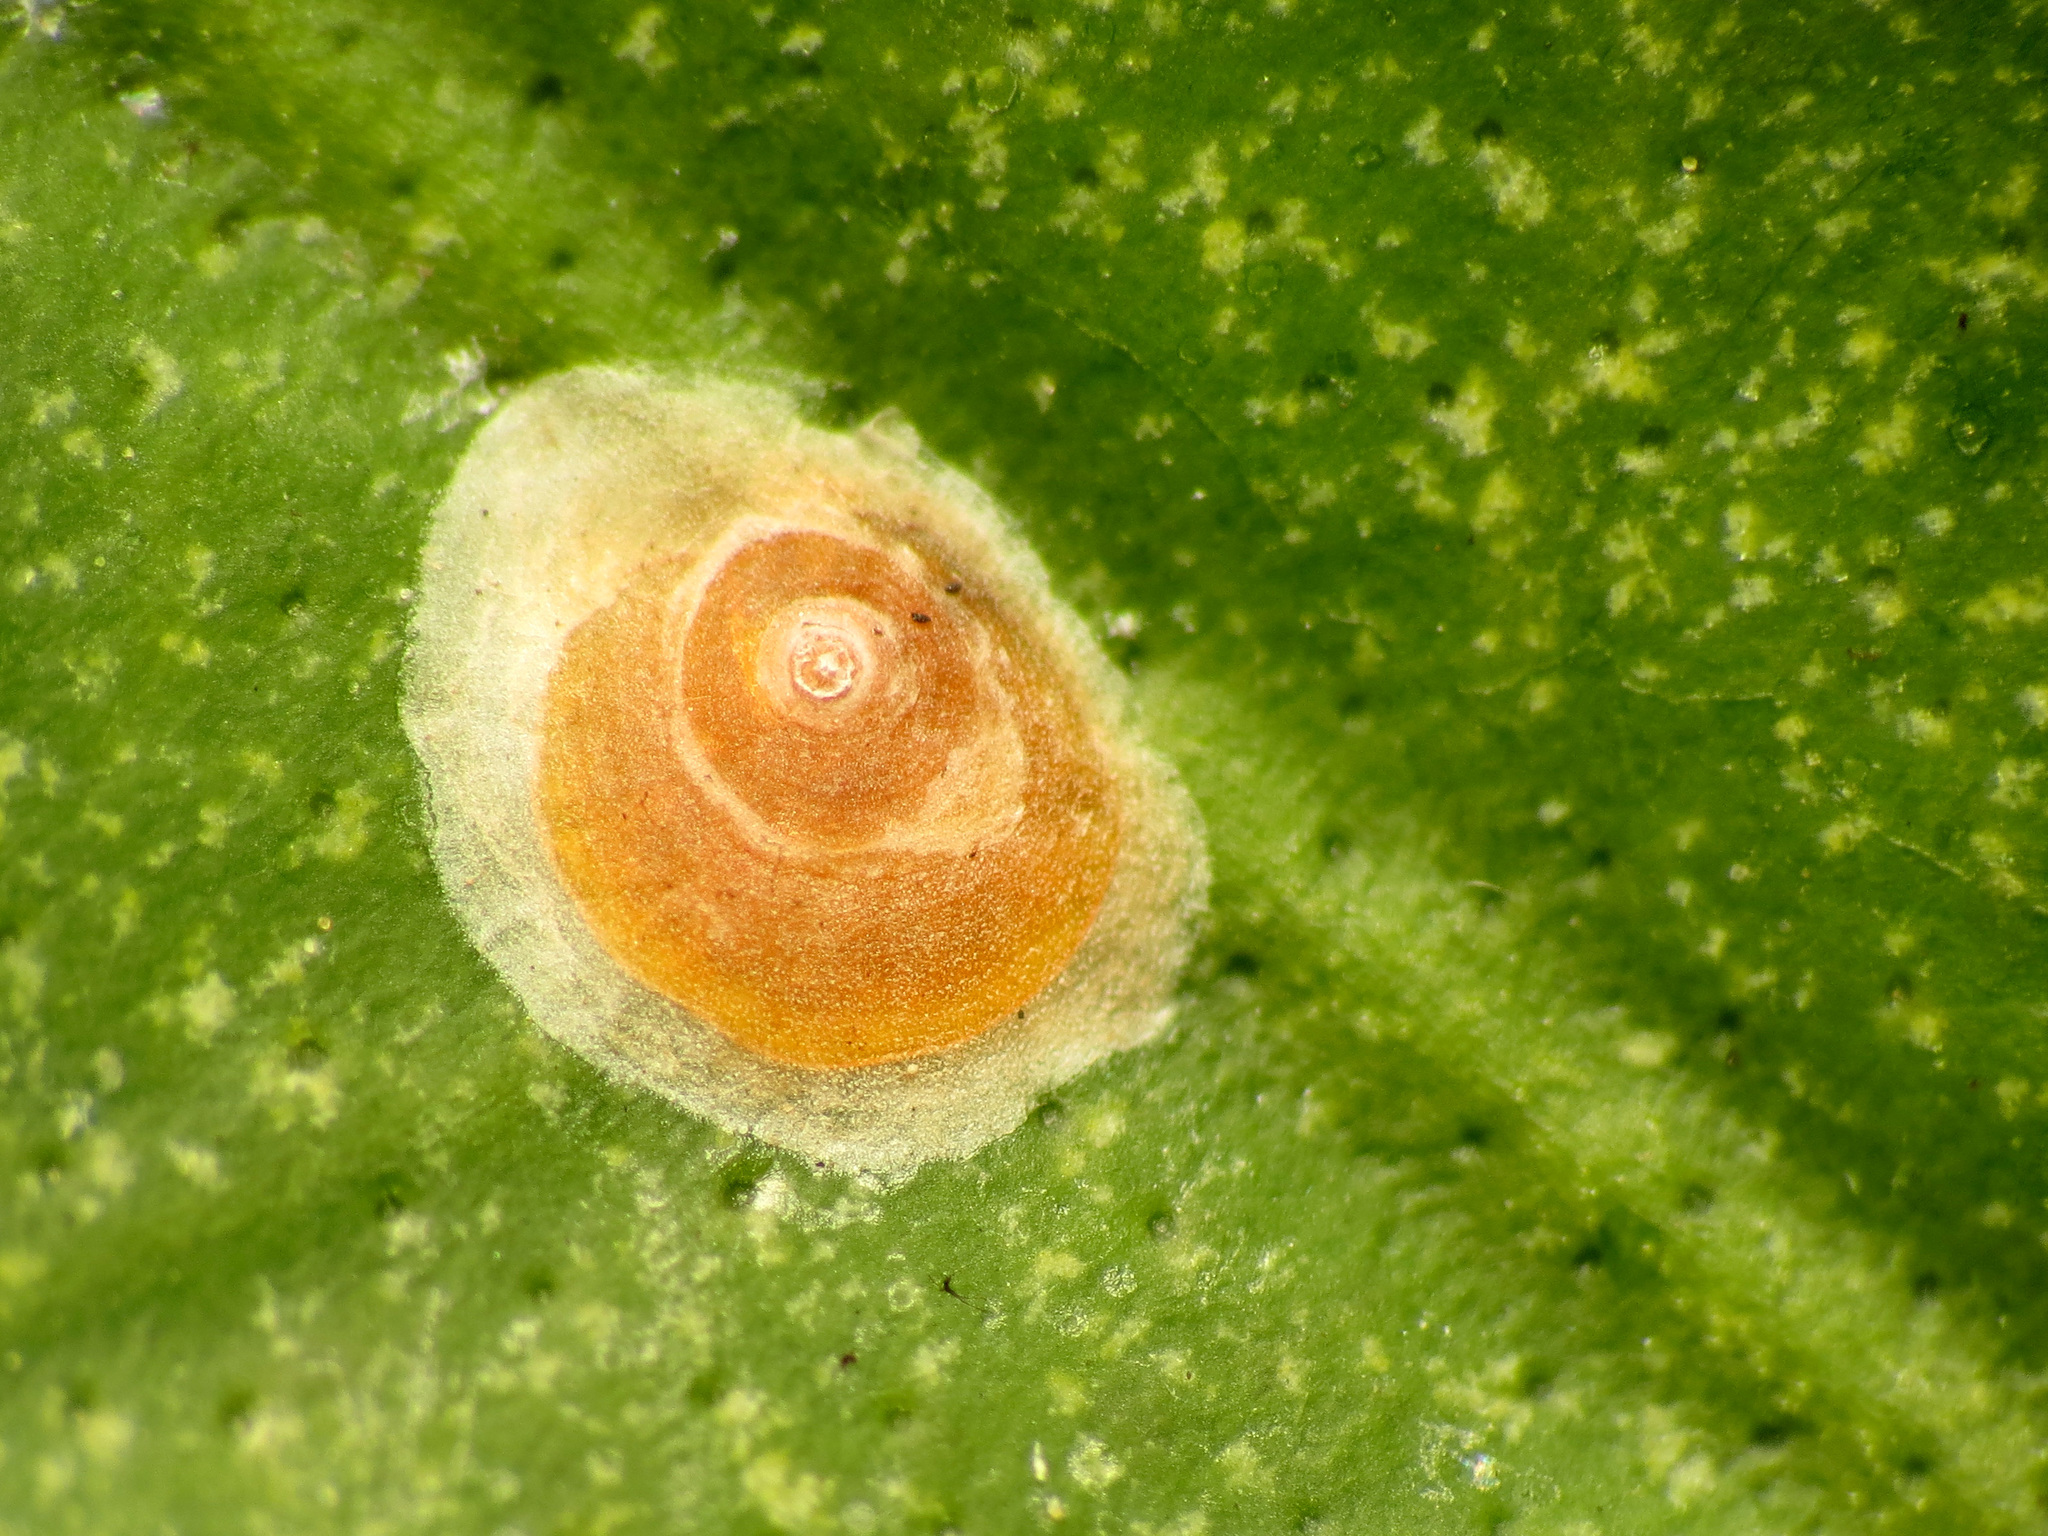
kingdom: Animalia
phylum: Arthropoda
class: Insecta
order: Hemiptera
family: Diaspididae
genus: Aonidiella
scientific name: Aonidiella aurantii
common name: California red scale
